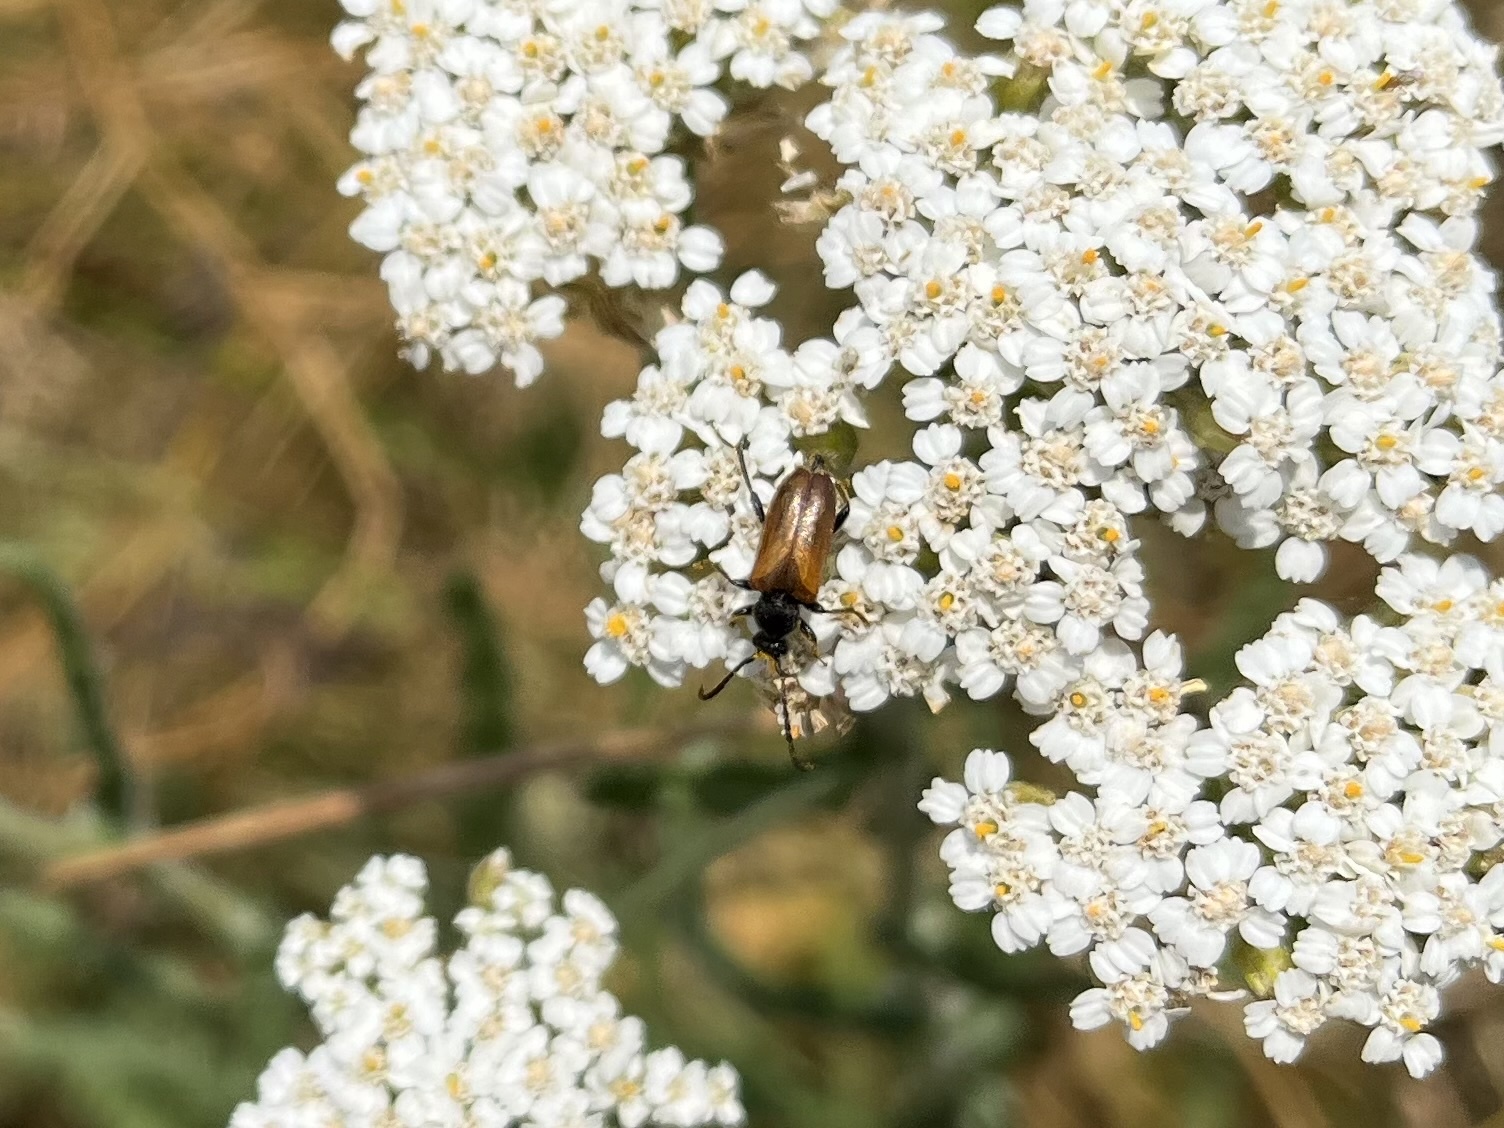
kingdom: Animalia
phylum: Arthropoda
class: Insecta
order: Coleoptera
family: Cerambycidae
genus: Pseudovadonia
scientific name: Pseudovadonia livida
